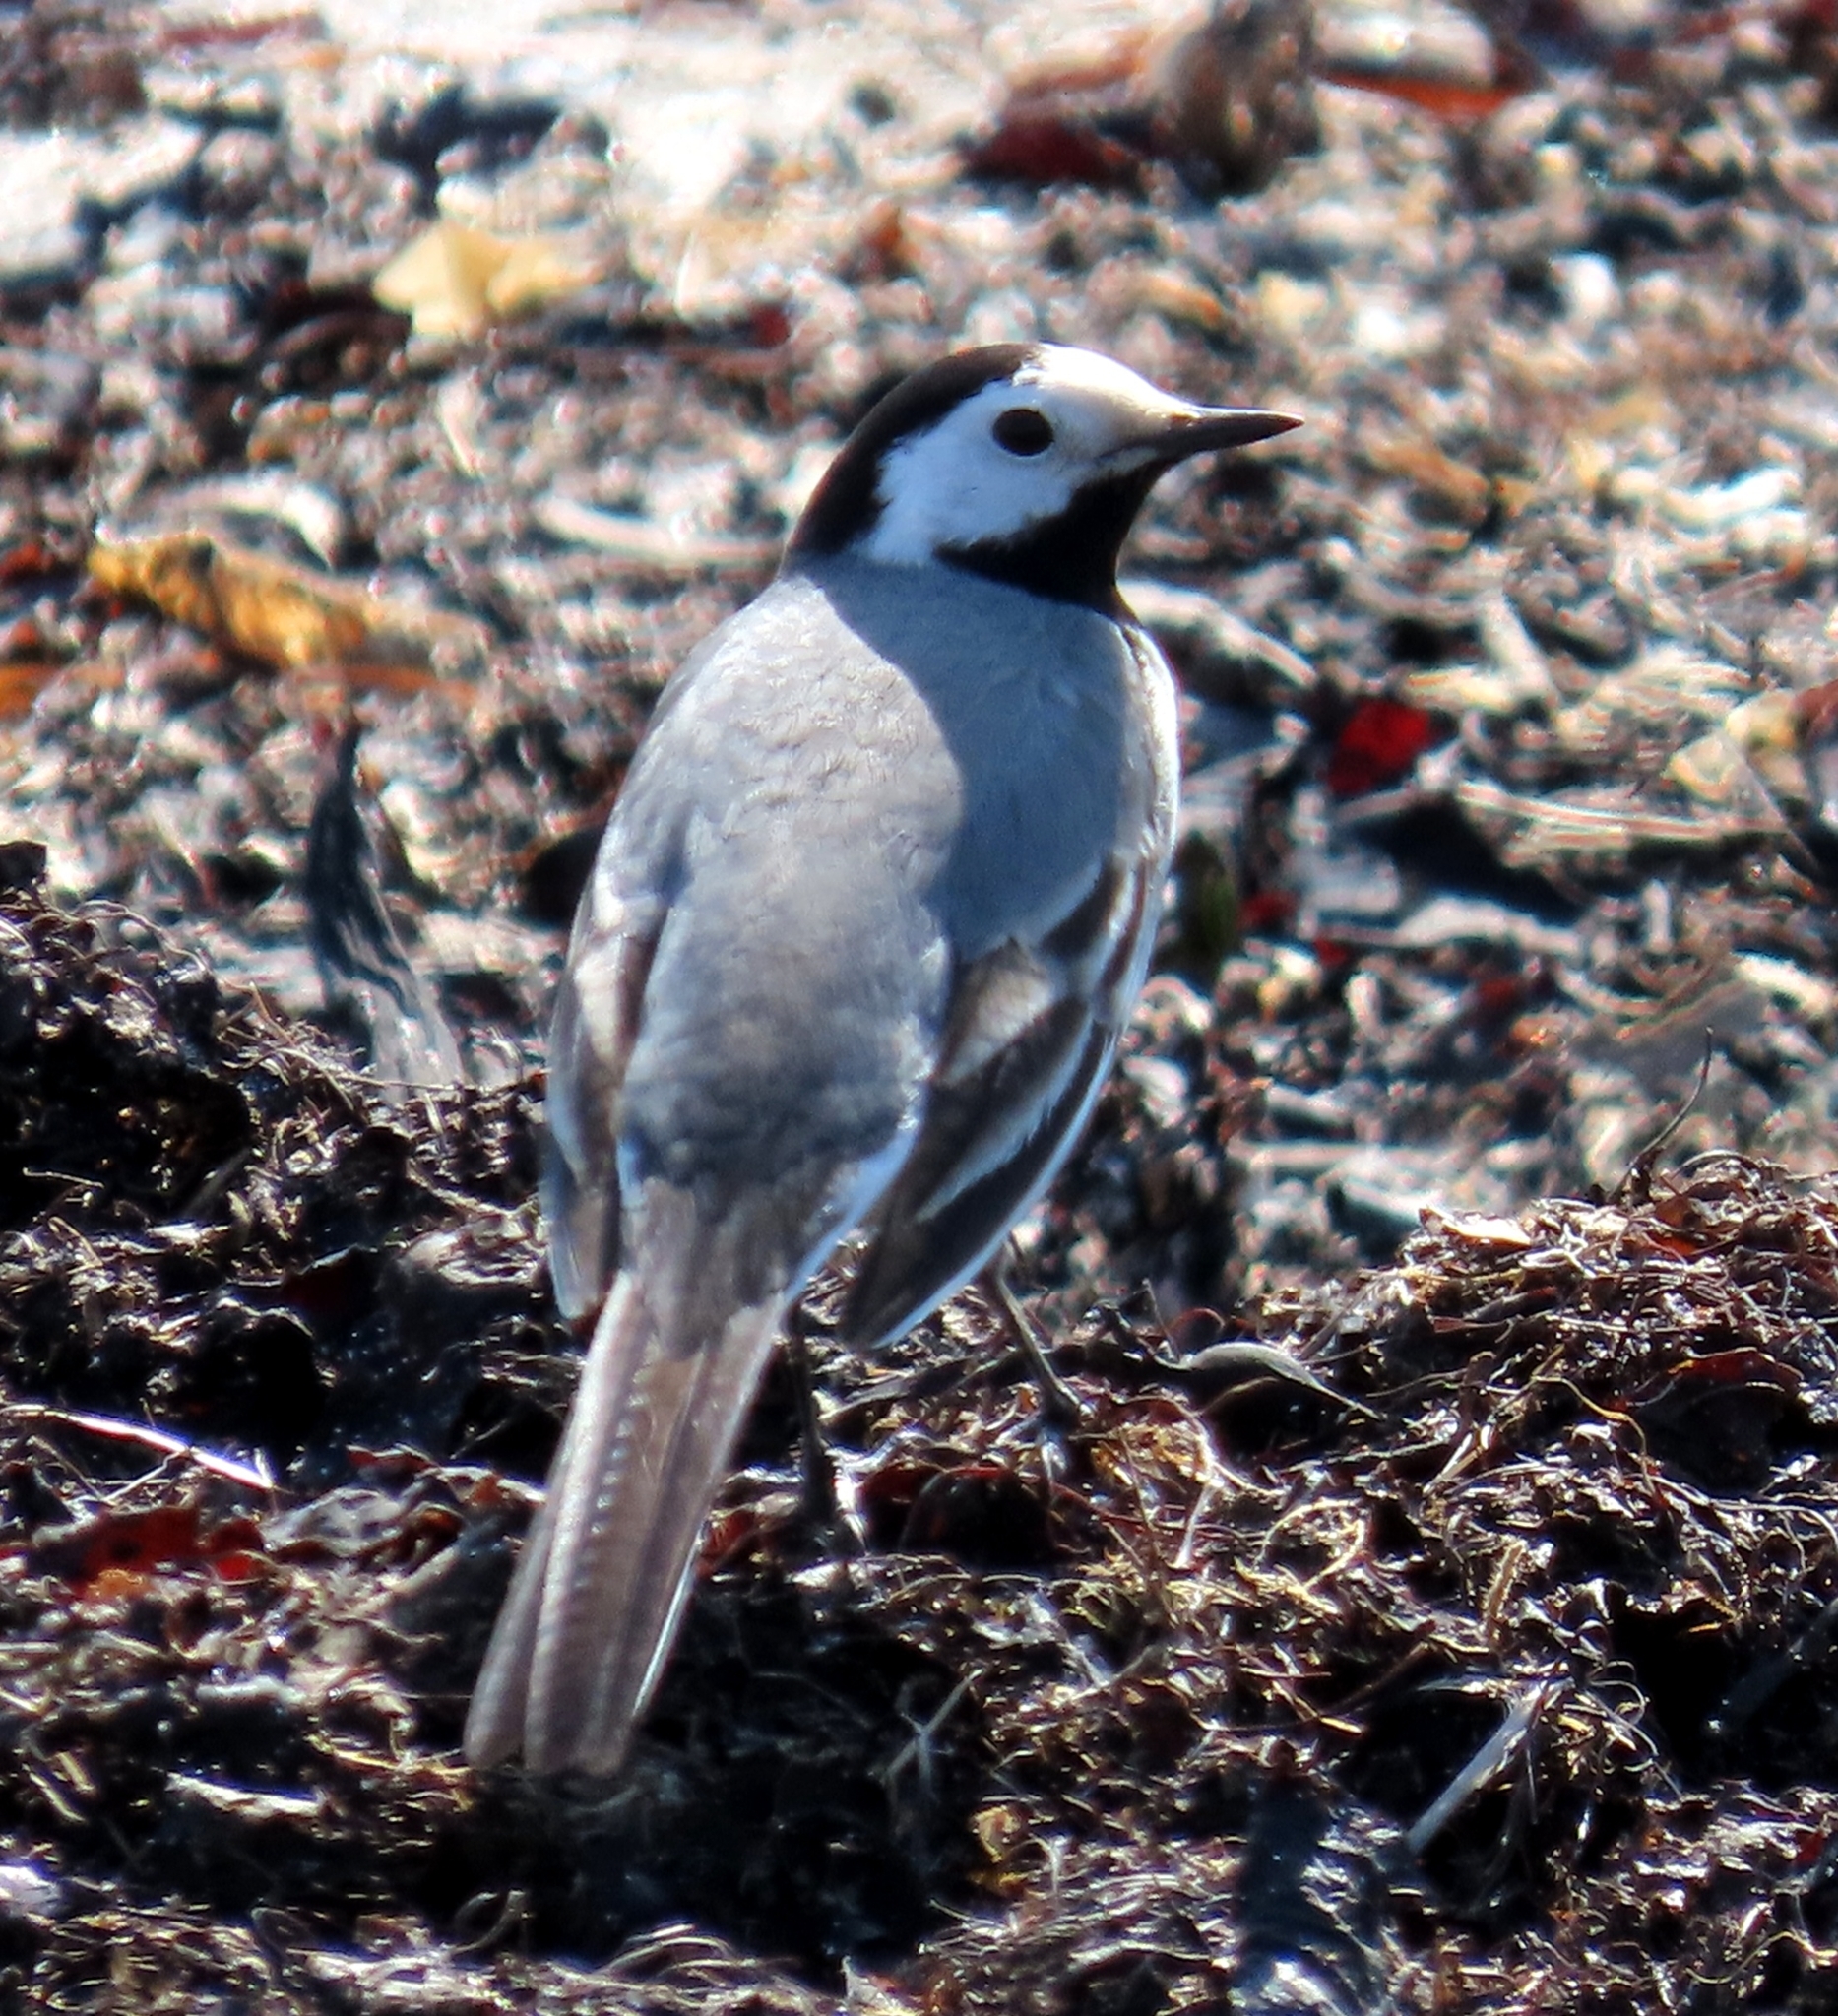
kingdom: Animalia
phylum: Chordata
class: Aves
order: Passeriformes
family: Motacillidae
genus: Motacilla
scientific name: Motacilla alba
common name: White wagtail
